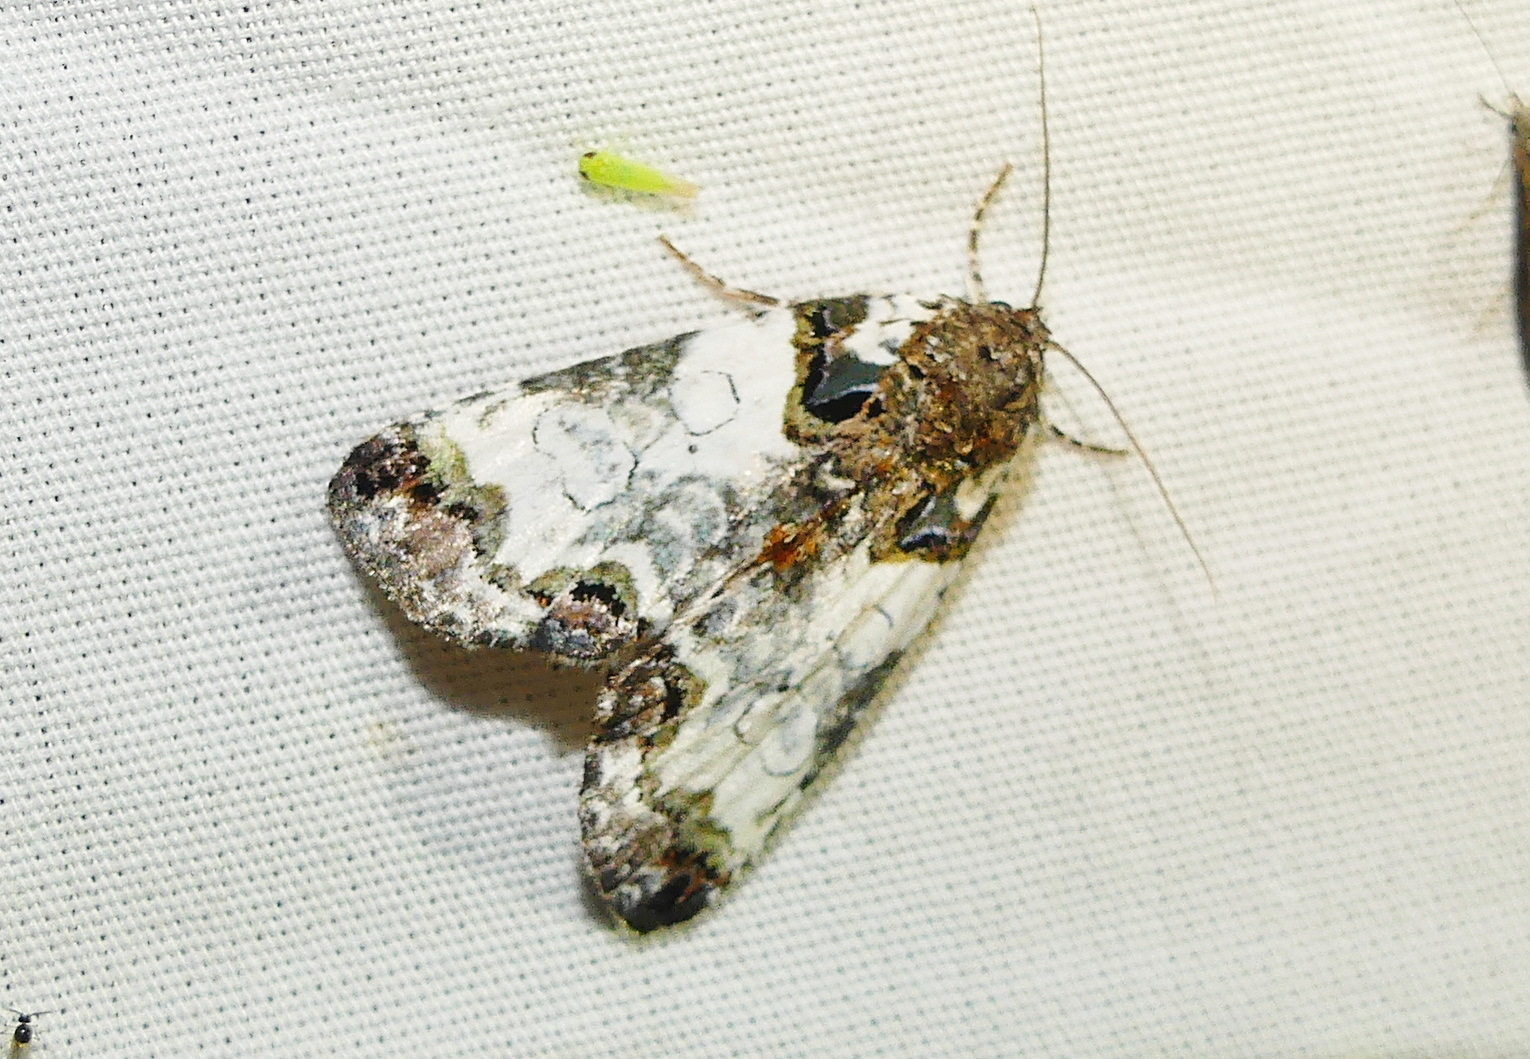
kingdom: Animalia
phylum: Arthropoda
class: Insecta
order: Lepidoptera
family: Noctuidae
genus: Cerma
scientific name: Cerma cerintha
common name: Tufted bird-dropping moth
